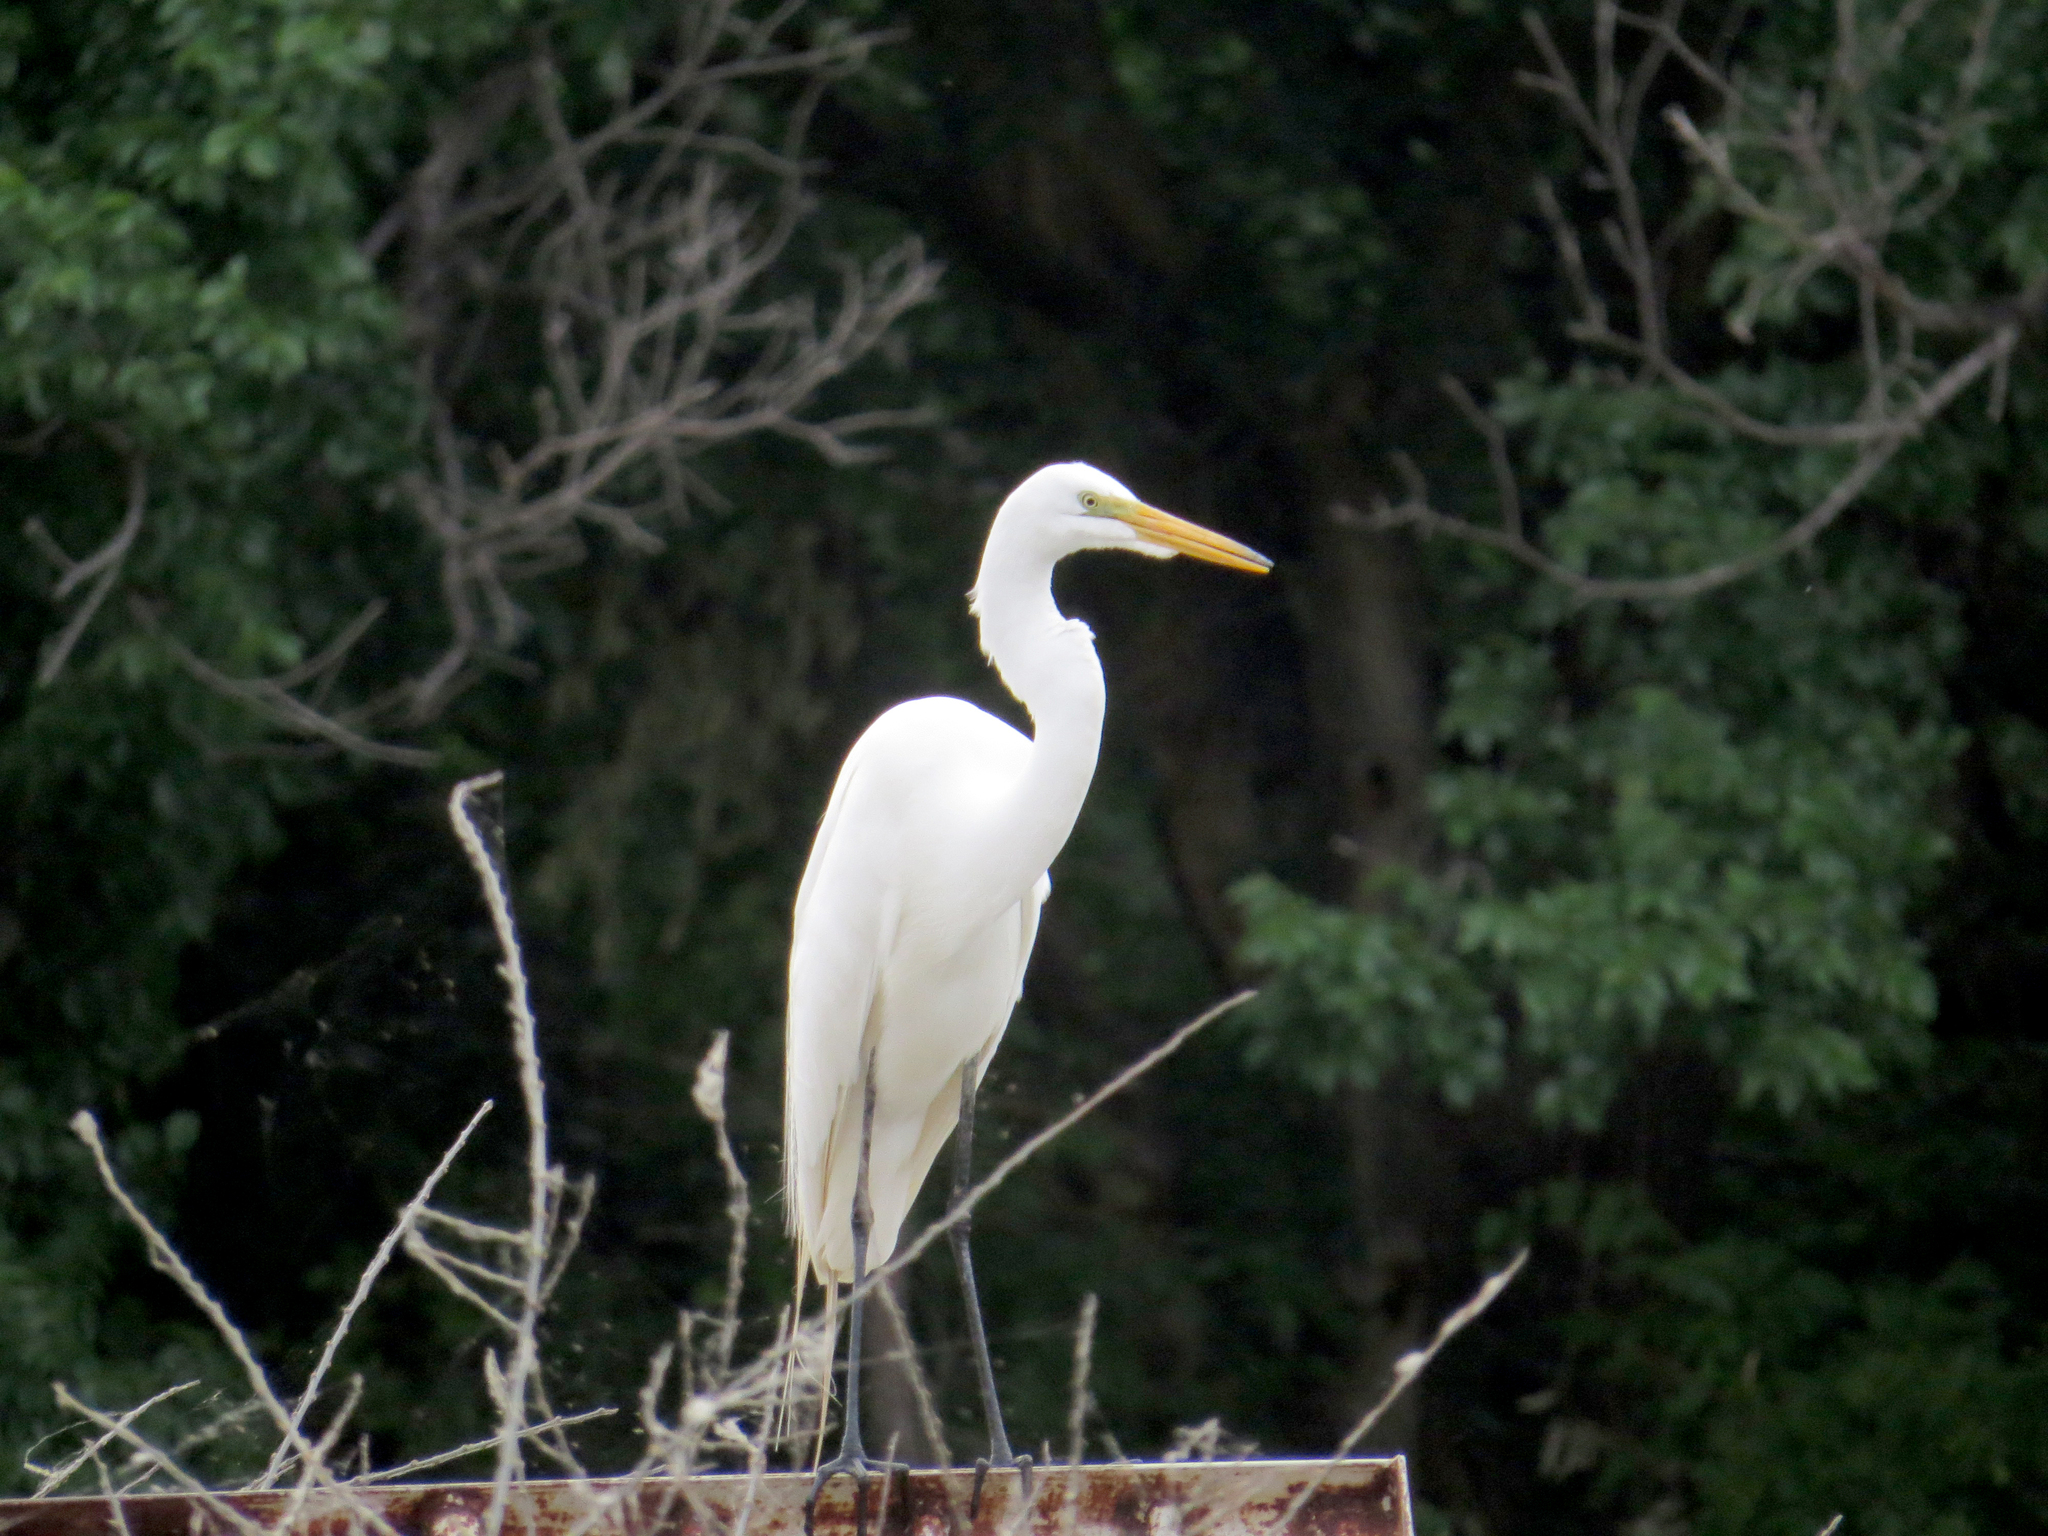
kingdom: Animalia
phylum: Chordata
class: Aves
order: Pelecaniformes
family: Ardeidae
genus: Ardea
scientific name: Ardea alba
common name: Great egret
